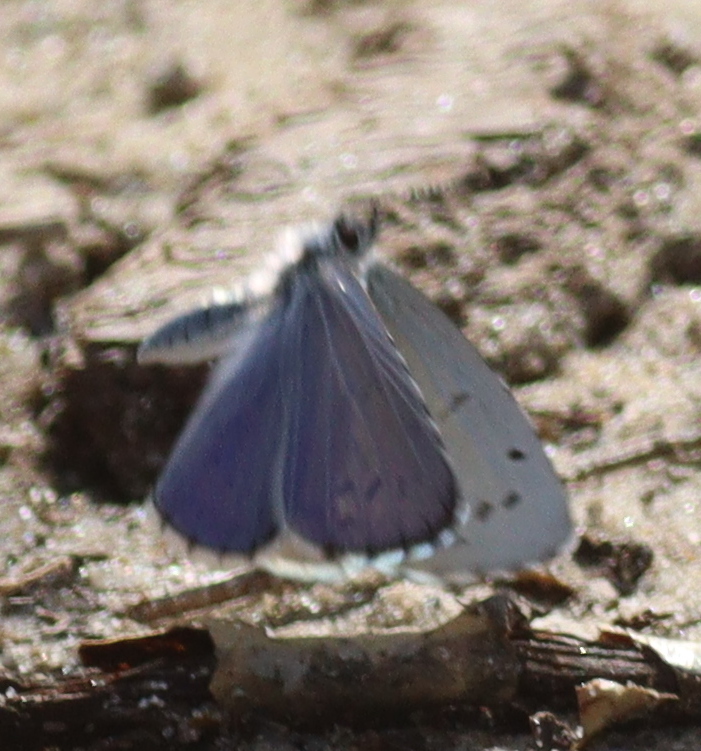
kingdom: Animalia
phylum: Arthropoda
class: Insecta
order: Lepidoptera
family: Lycaenidae
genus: Celastrina
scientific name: Celastrina argiolus
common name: Holly blue
